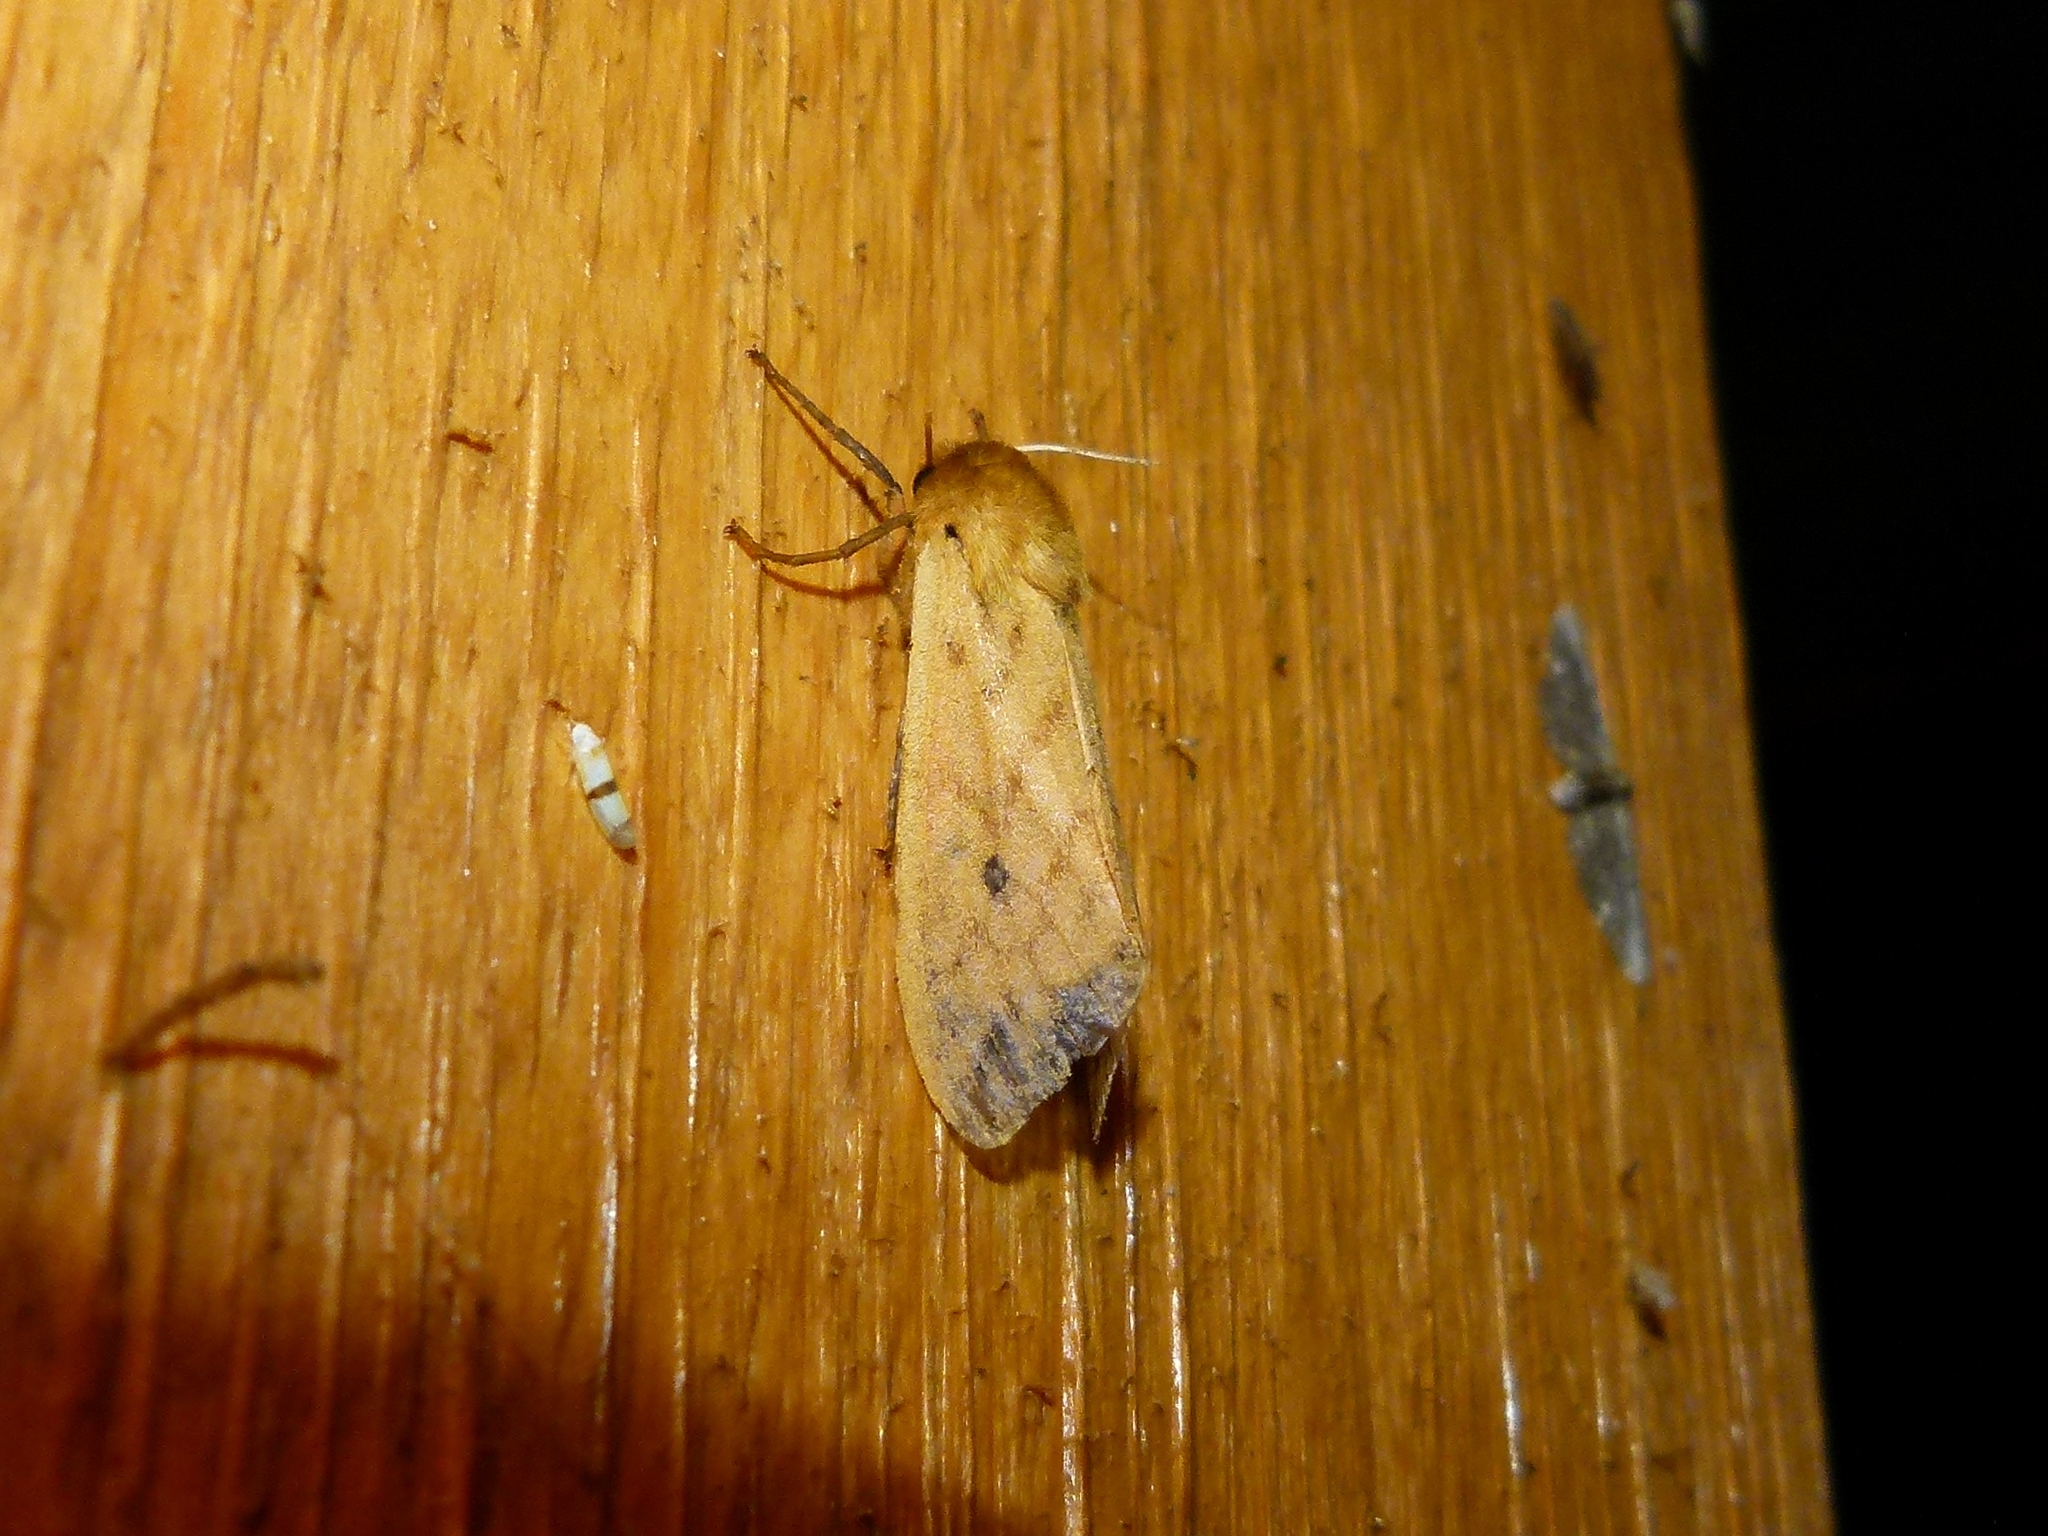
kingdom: Animalia
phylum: Arthropoda
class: Insecta
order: Lepidoptera
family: Erebidae
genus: Pyrrharctia
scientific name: Pyrrharctia isabella
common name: Isabella tiger moth
